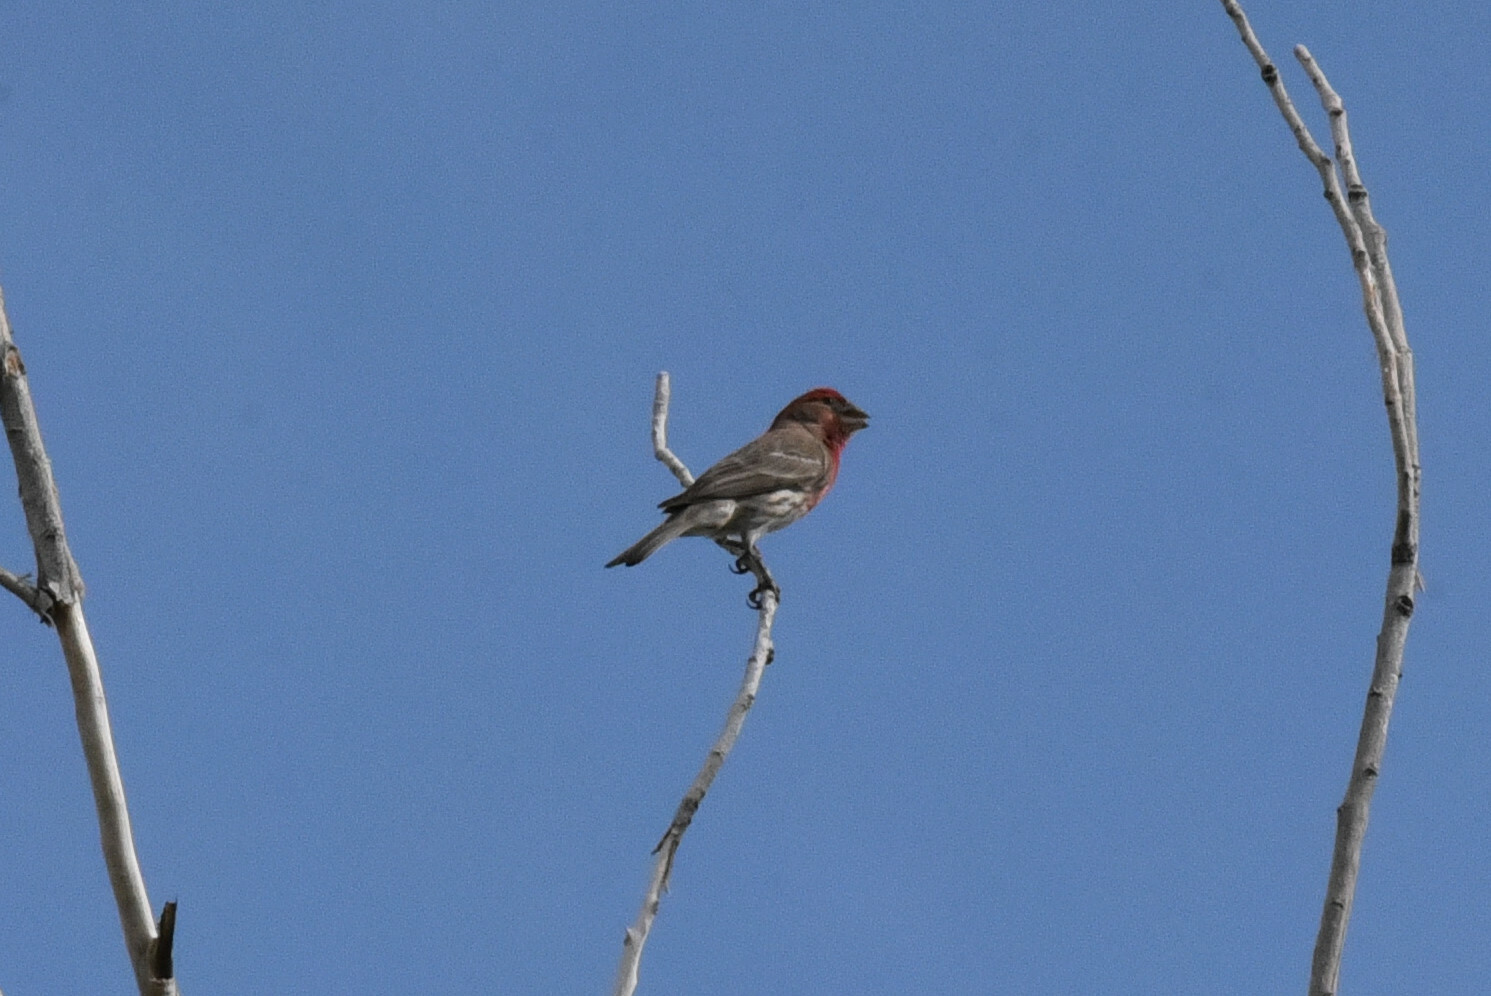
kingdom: Animalia
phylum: Chordata
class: Aves
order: Passeriformes
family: Fringillidae
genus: Haemorhous
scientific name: Haemorhous mexicanus
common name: House finch
